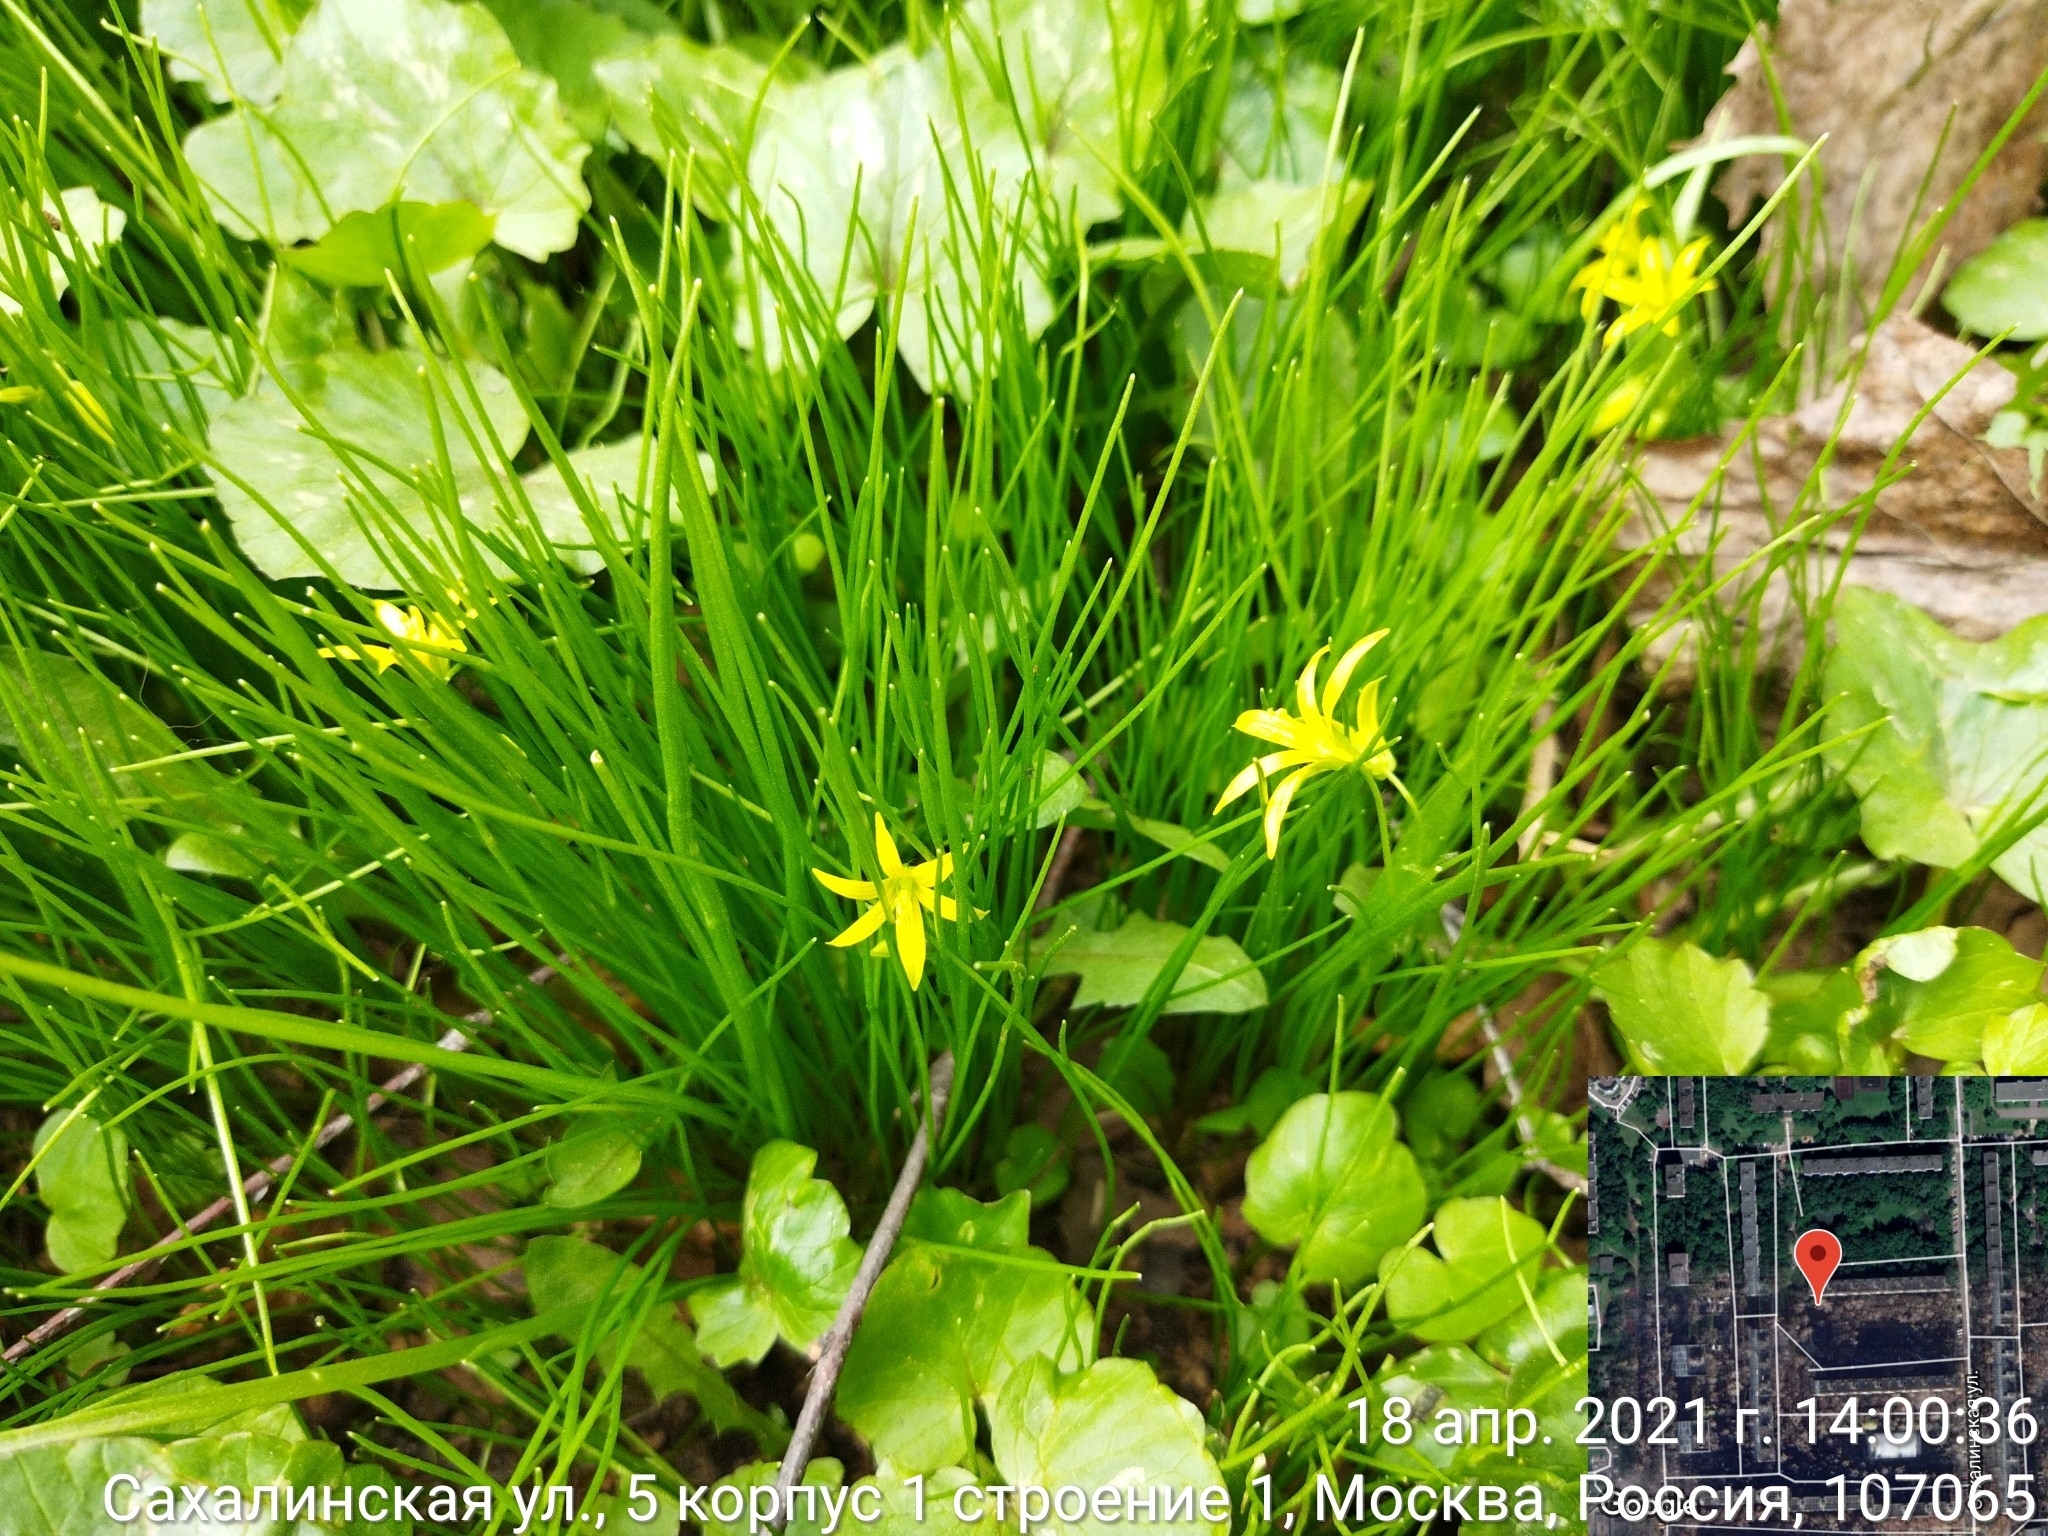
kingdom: Plantae
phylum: Tracheophyta
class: Liliopsida
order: Liliales
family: Liliaceae
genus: Gagea
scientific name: Gagea minima
